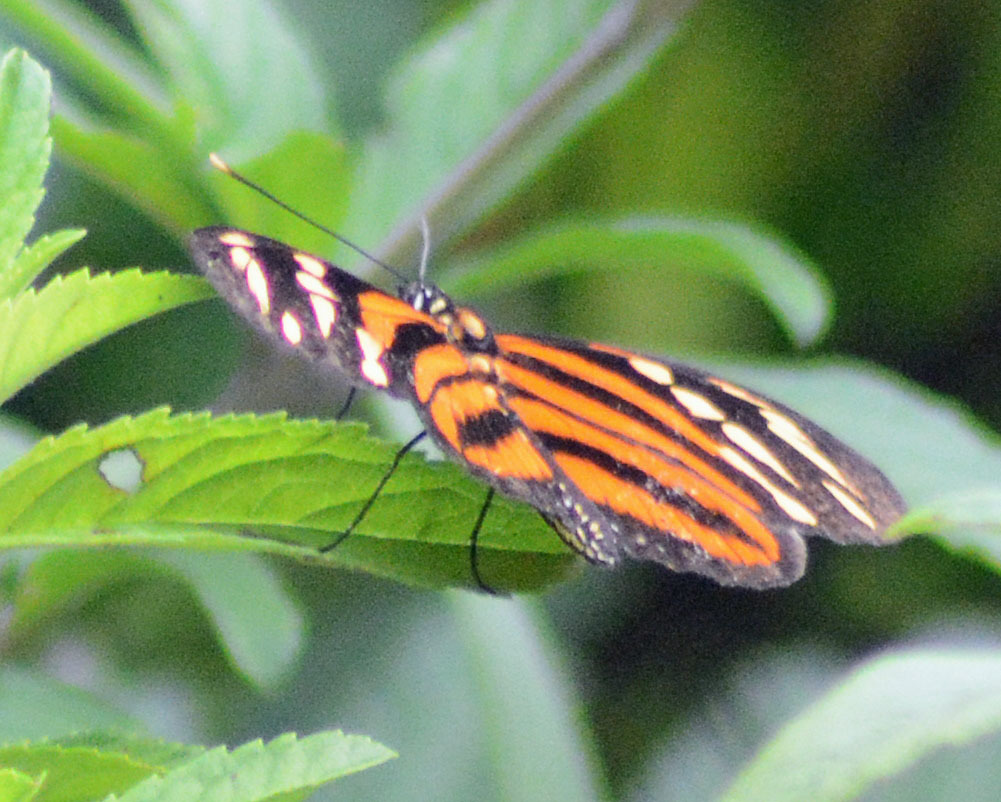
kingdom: Animalia
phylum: Arthropoda
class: Insecta
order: Lepidoptera
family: Nymphalidae
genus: Lycorea
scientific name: Lycorea eva
